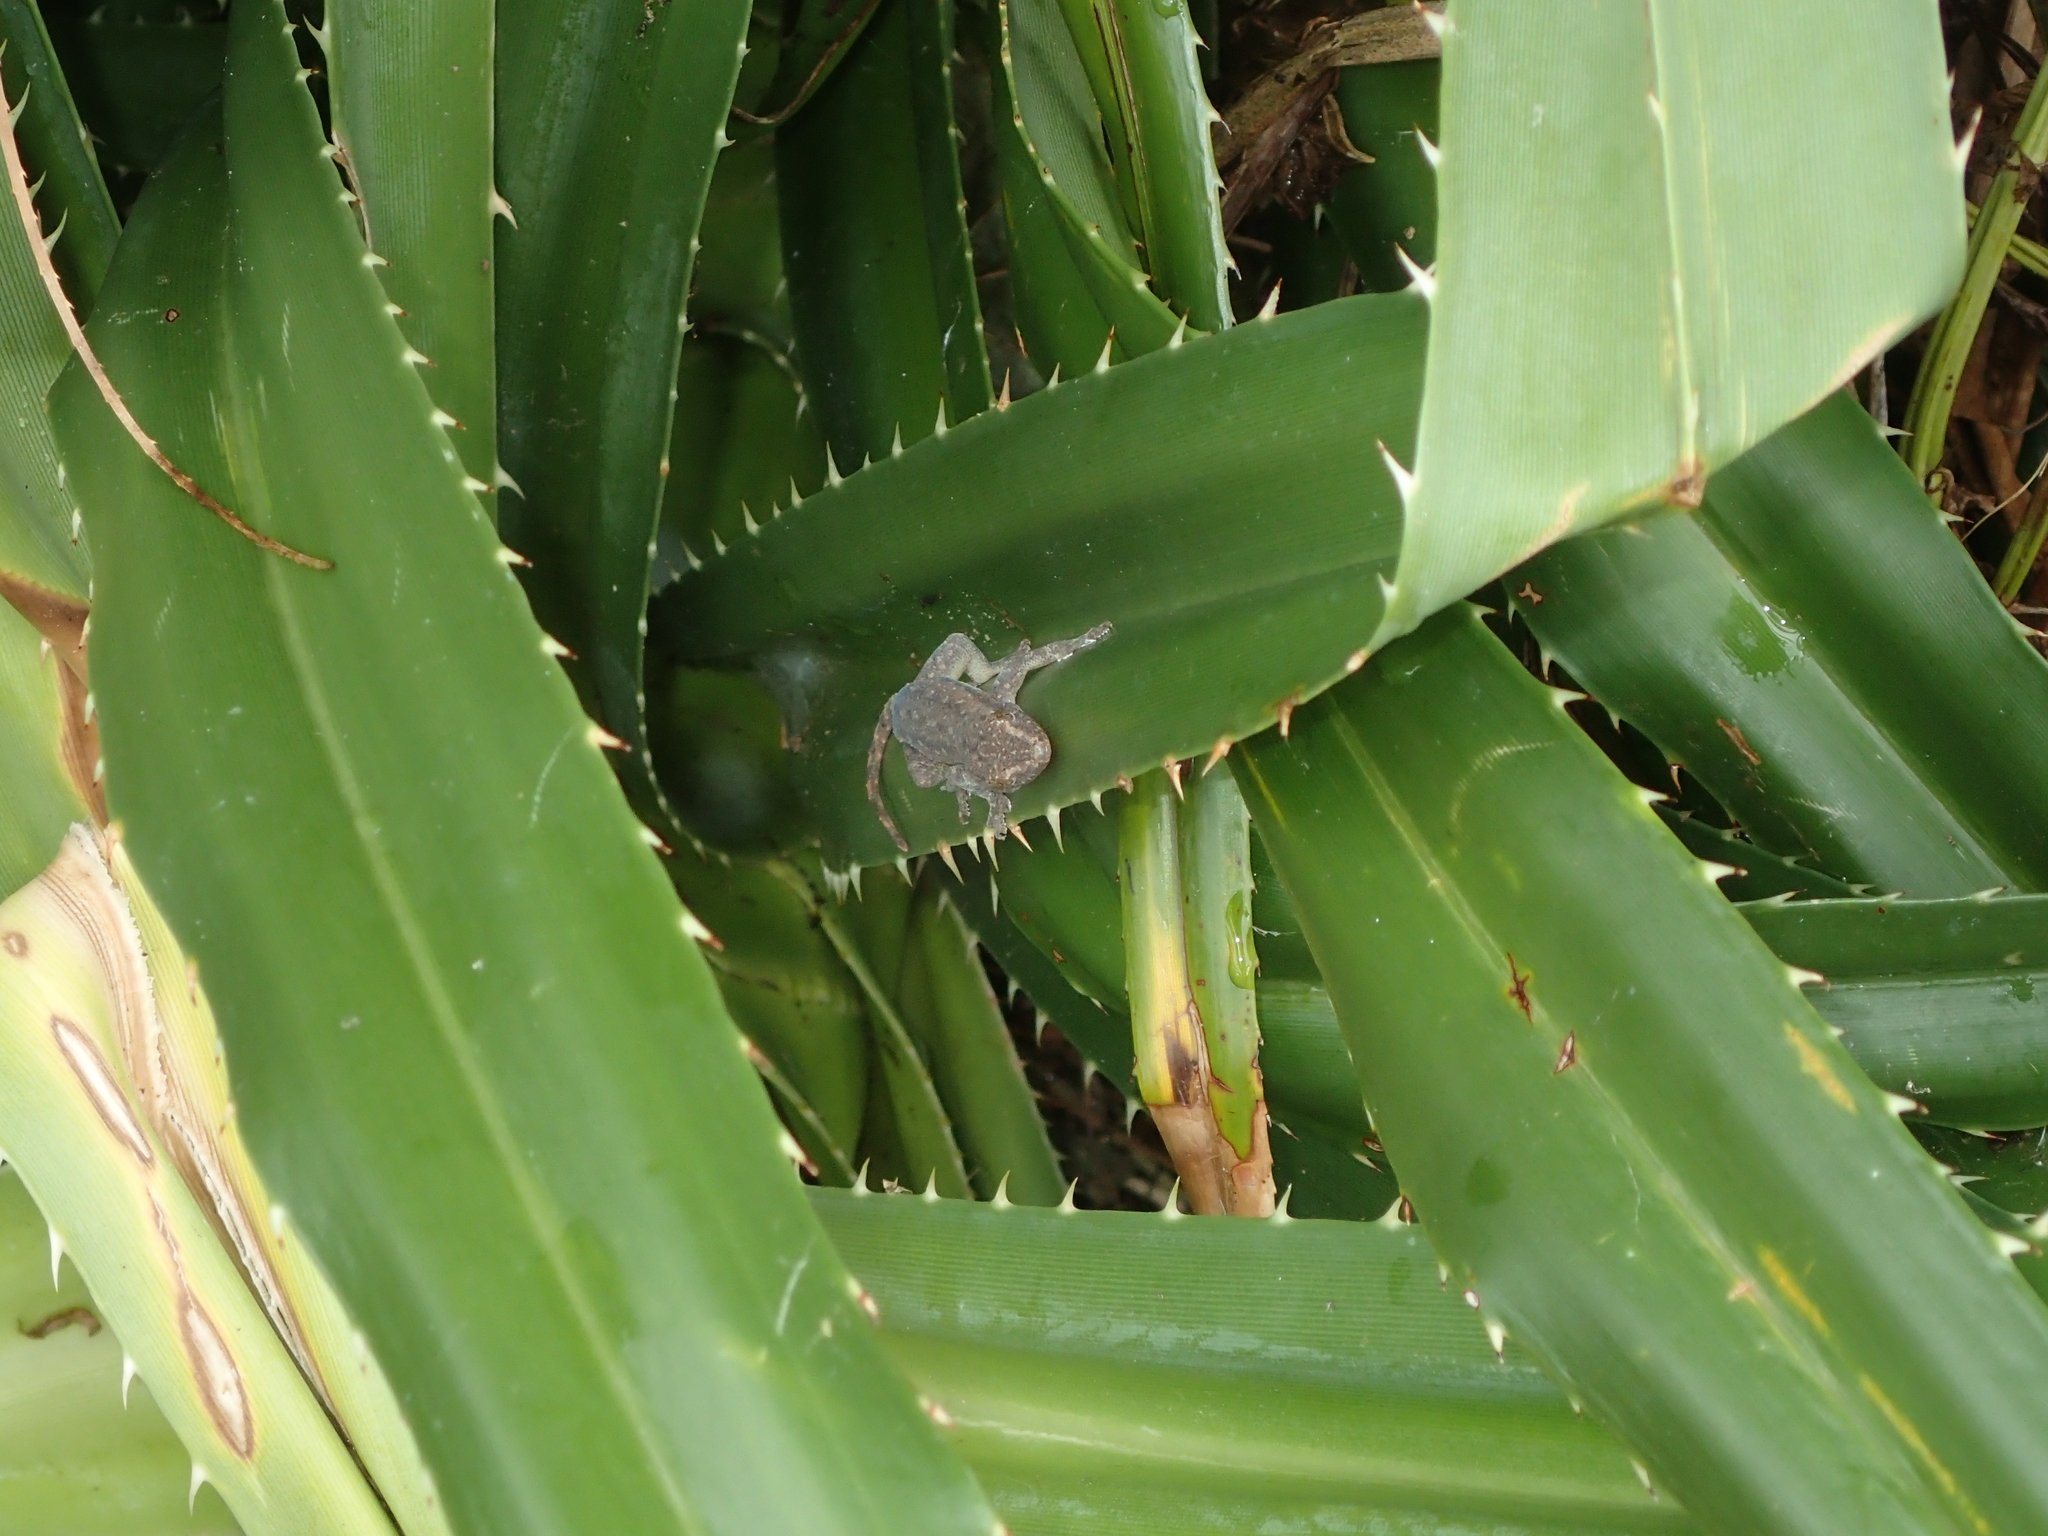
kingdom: Animalia
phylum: Chordata
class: Squamata
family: Gekkonidae
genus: Hemidactylus
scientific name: Hemidactylus frenatus
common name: Common house gecko
